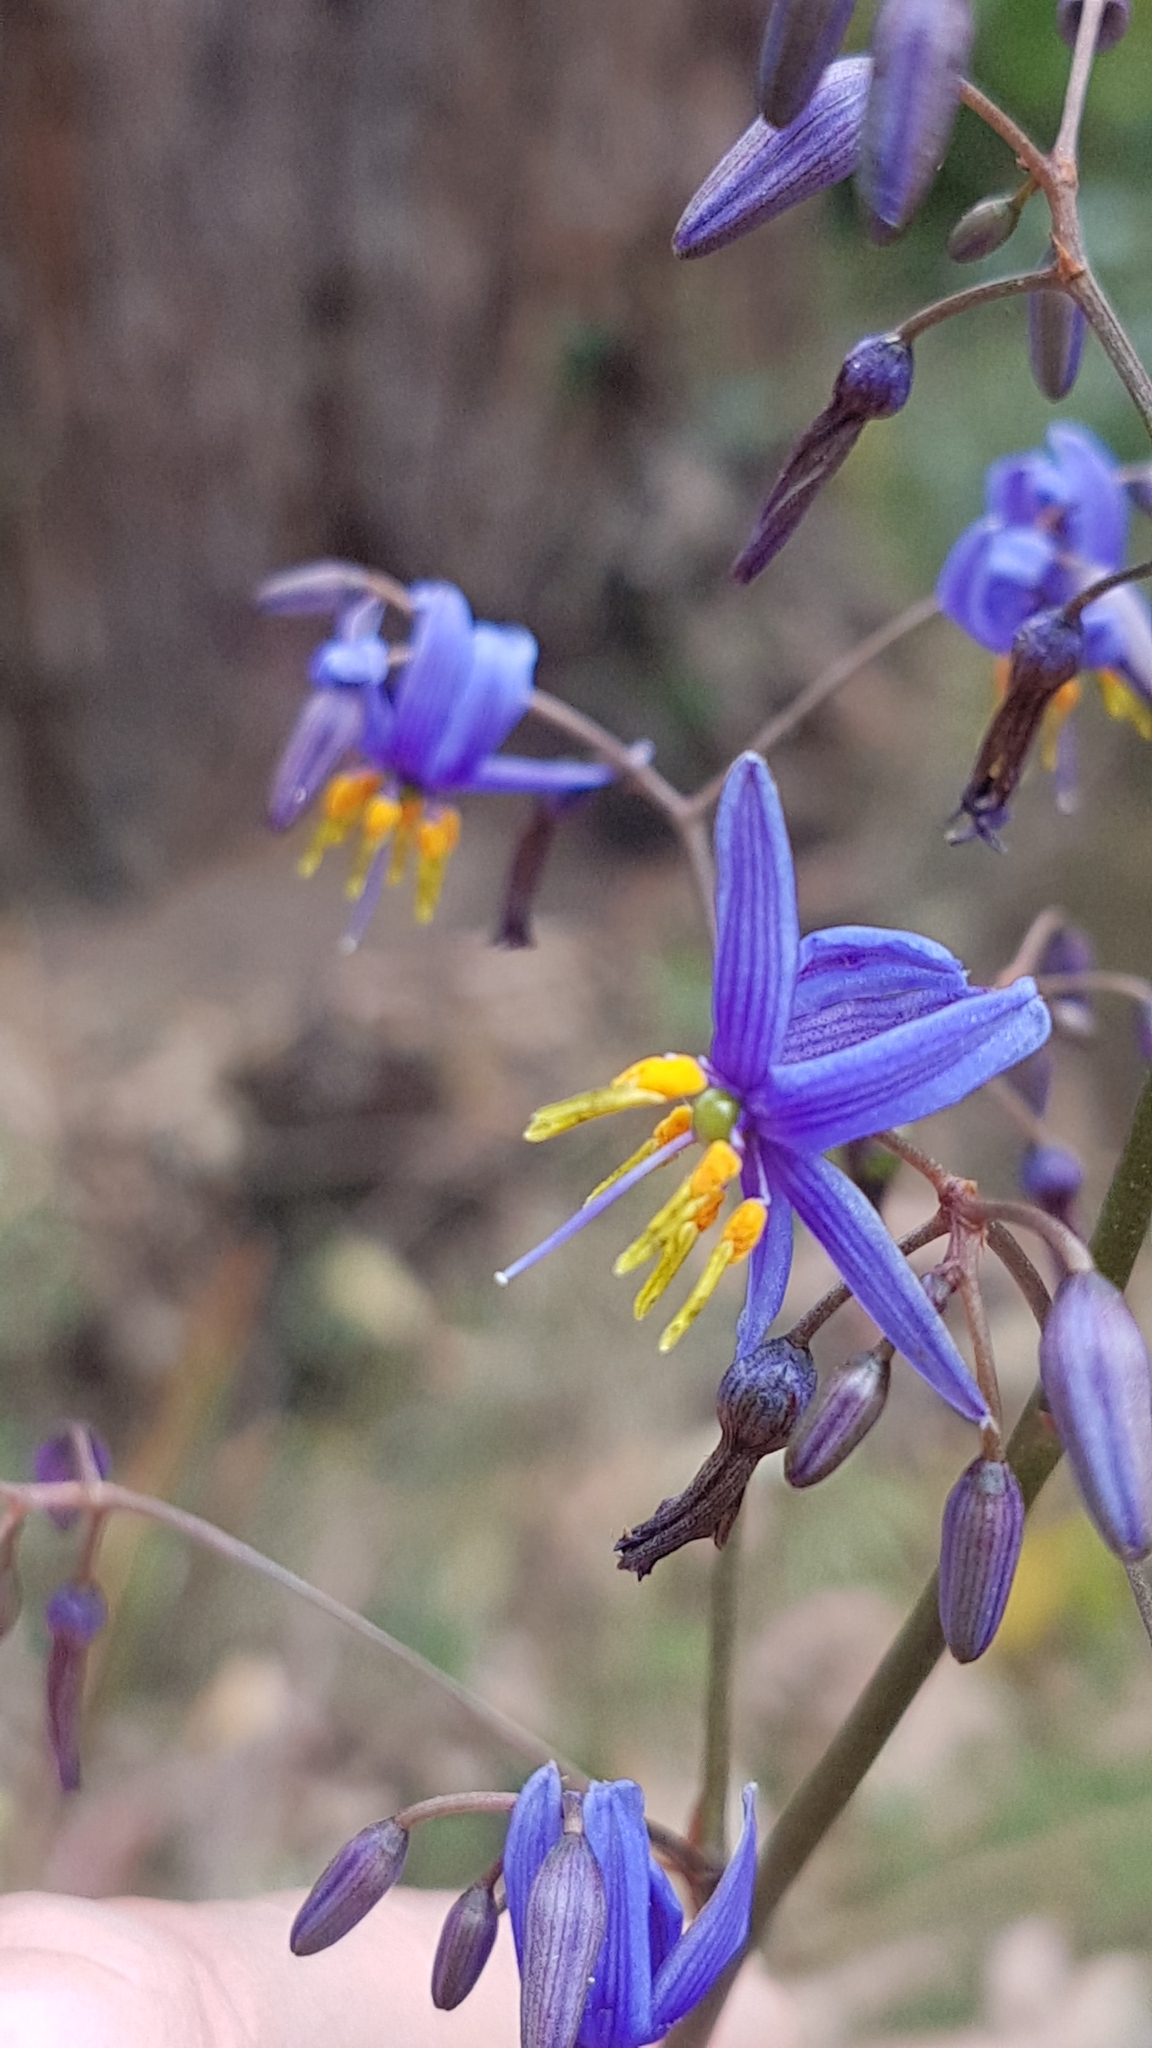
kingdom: Plantae
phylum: Tracheophyta
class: Liliopsida
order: Asparagales
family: Asphodelaceae
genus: Dianella
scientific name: Dianella caerulea
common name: Blue flax-lily
